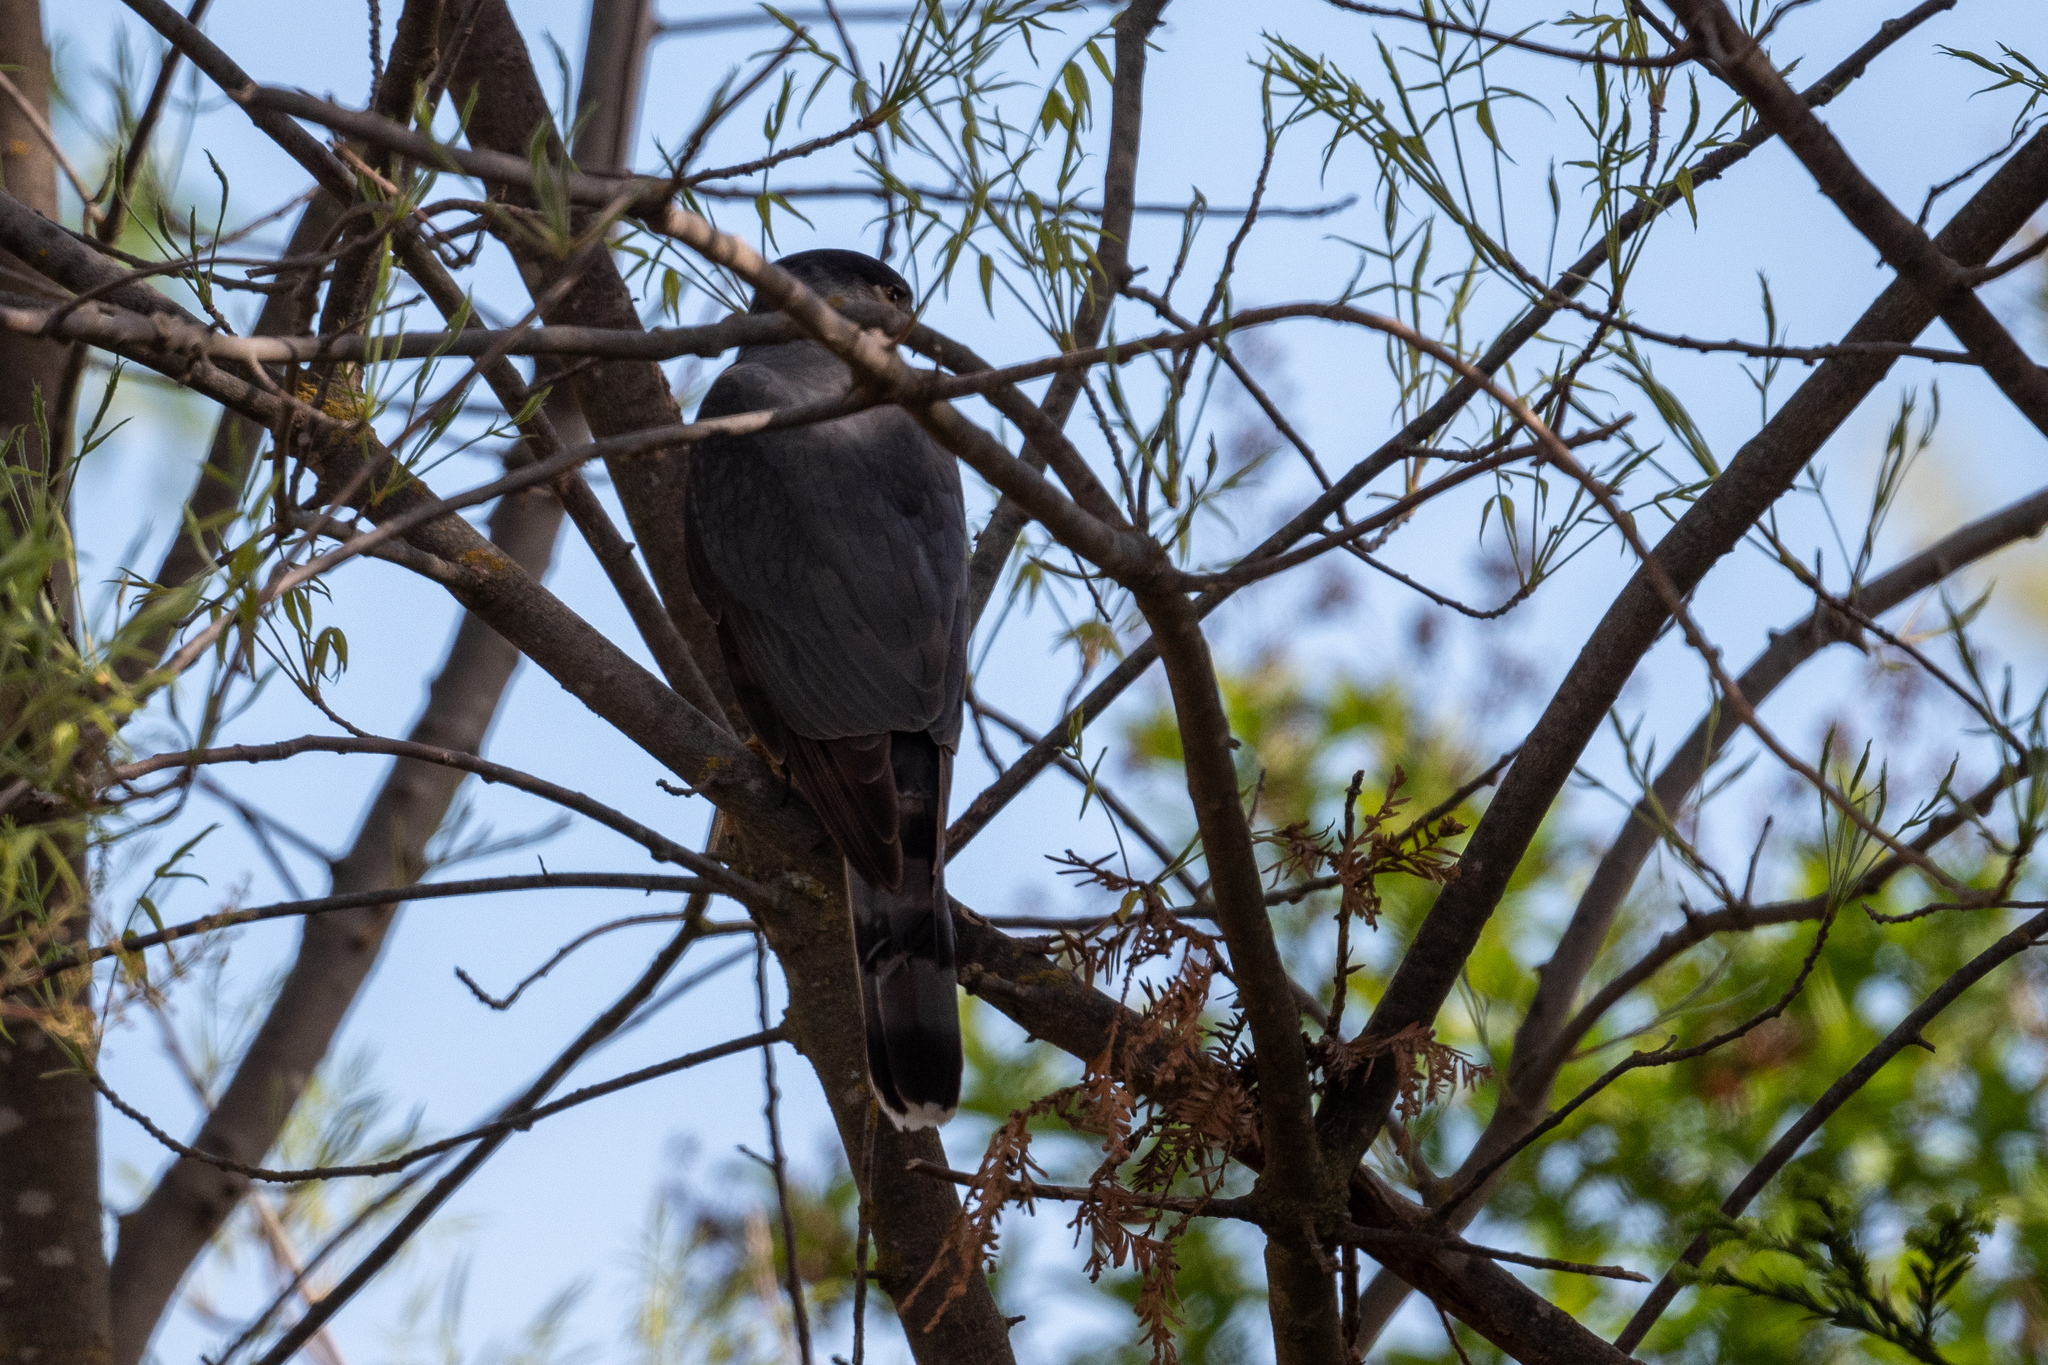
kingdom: Animalia
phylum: Chordata
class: Aves
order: Accipitriformes
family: Accipitridae
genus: Accipiter
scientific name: Accipiter cooperii
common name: Cooper's hawk
